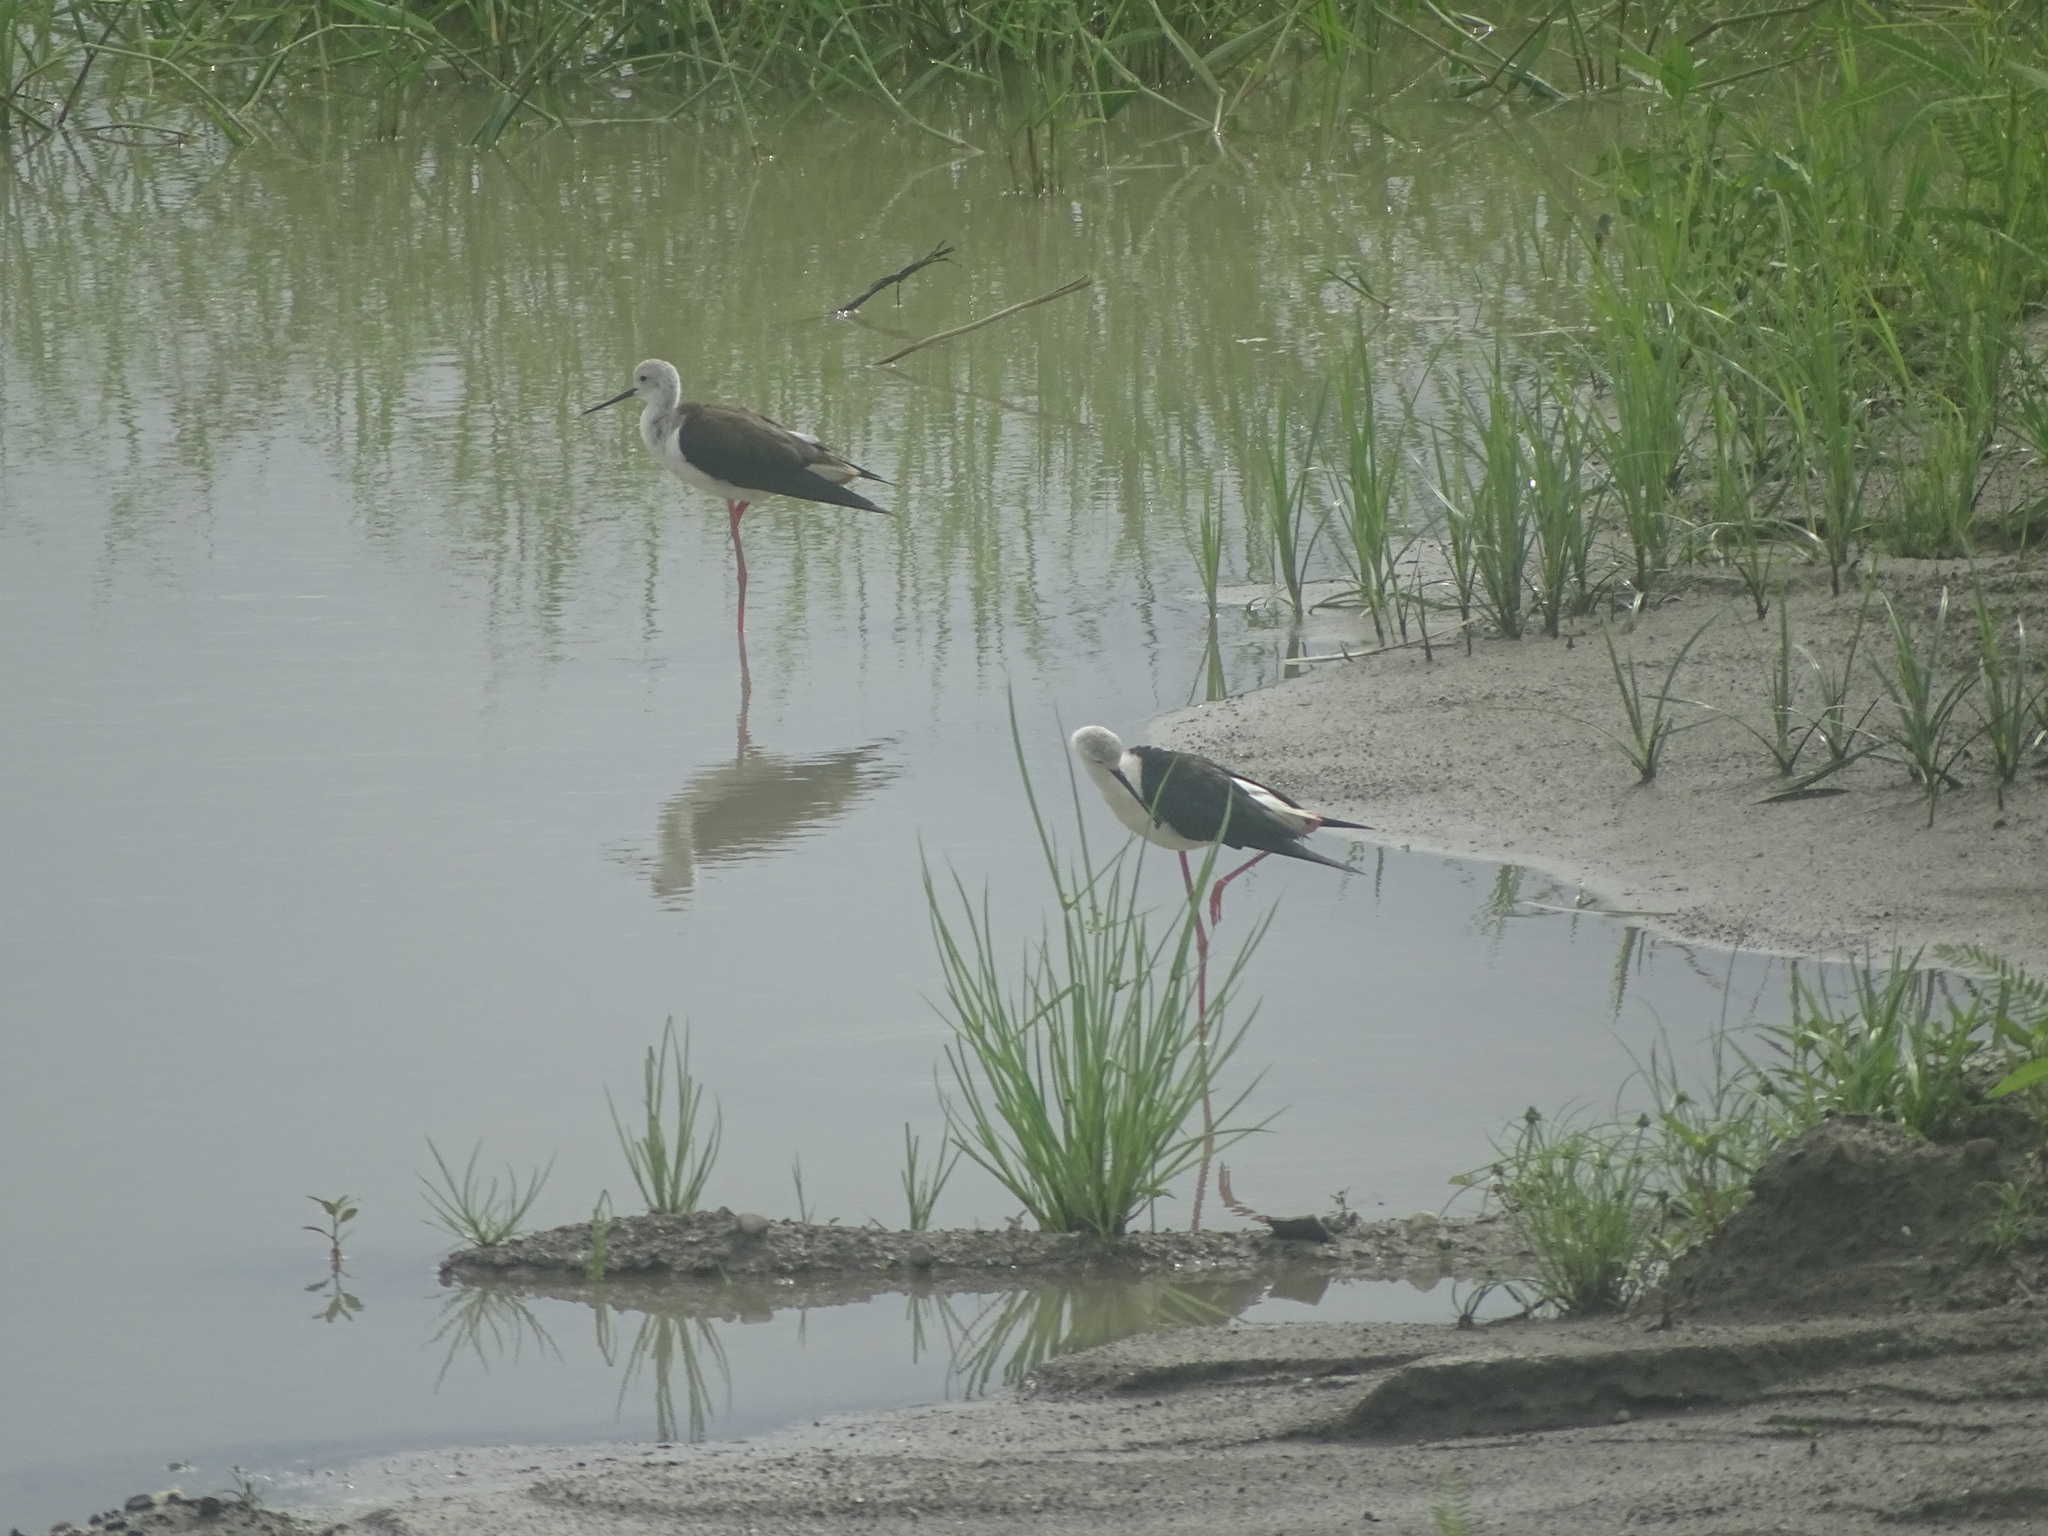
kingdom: Animalia
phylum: Chordata
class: Aves
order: Charadriiformes
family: Recurvirostridae
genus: Himantopus
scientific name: Himantopus himantopus
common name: Black-winged stilt
